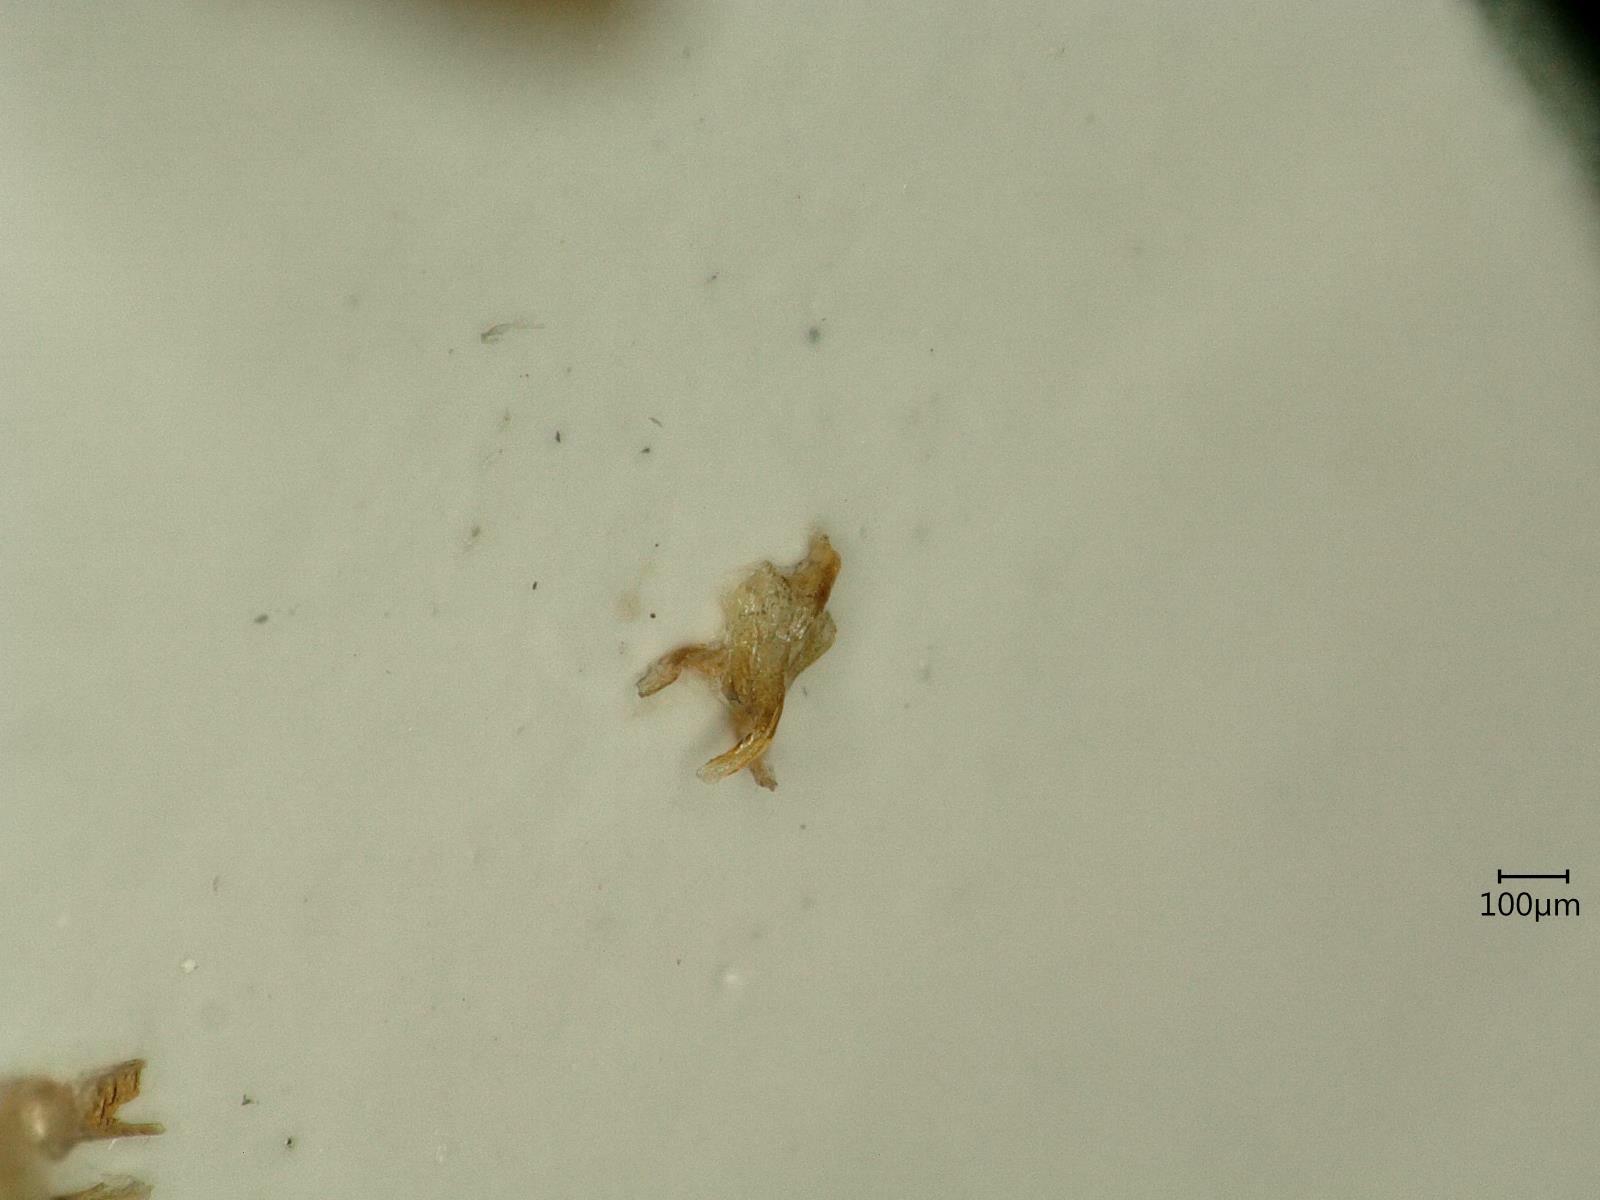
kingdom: Animalia
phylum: Arthropoda
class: Insecta
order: Hemiptera
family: Cicadellidae
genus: Oncopsis
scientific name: Oncopsis flavicollis
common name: Leafhopper
